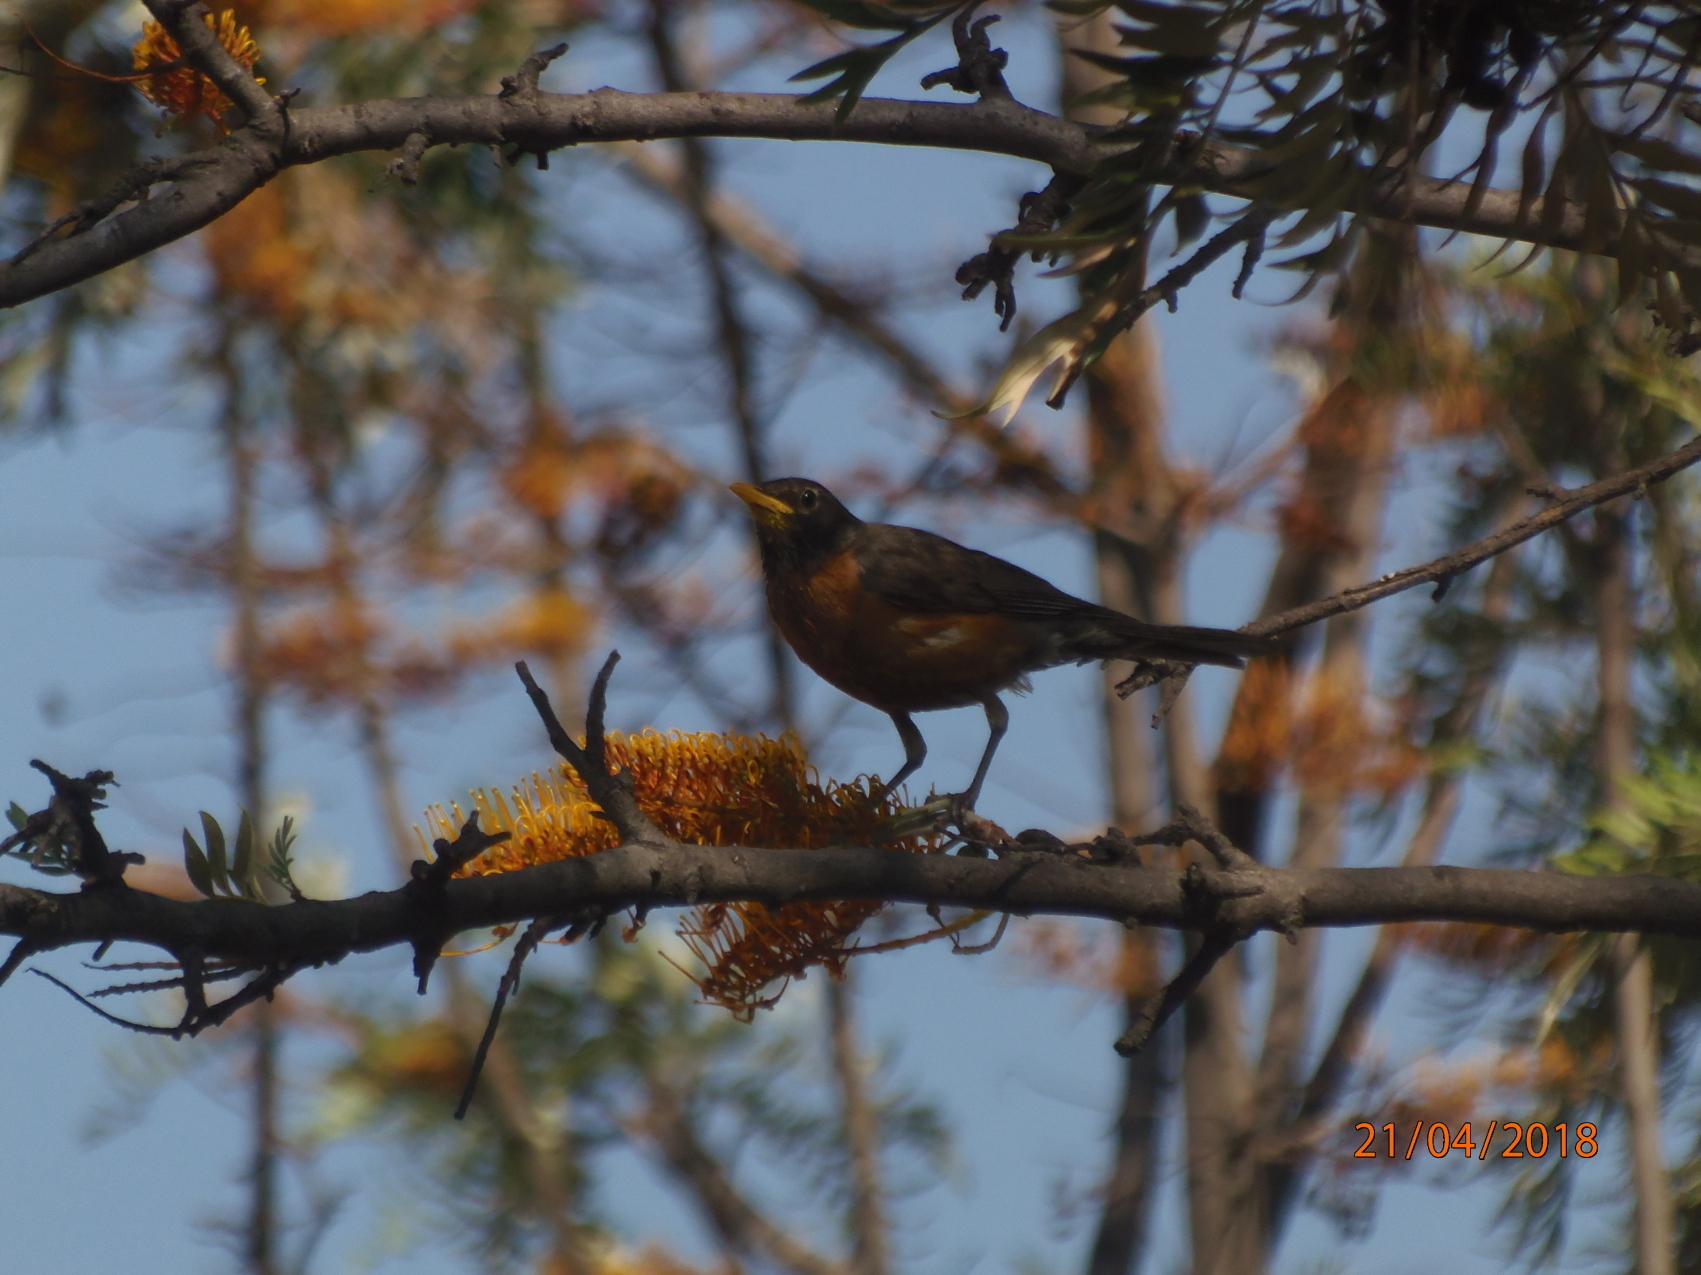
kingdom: Animalia
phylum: Chordata
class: Aves
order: Passeriformes
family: Turdidae
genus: Turdus
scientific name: Turdus migratorius
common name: American robin
